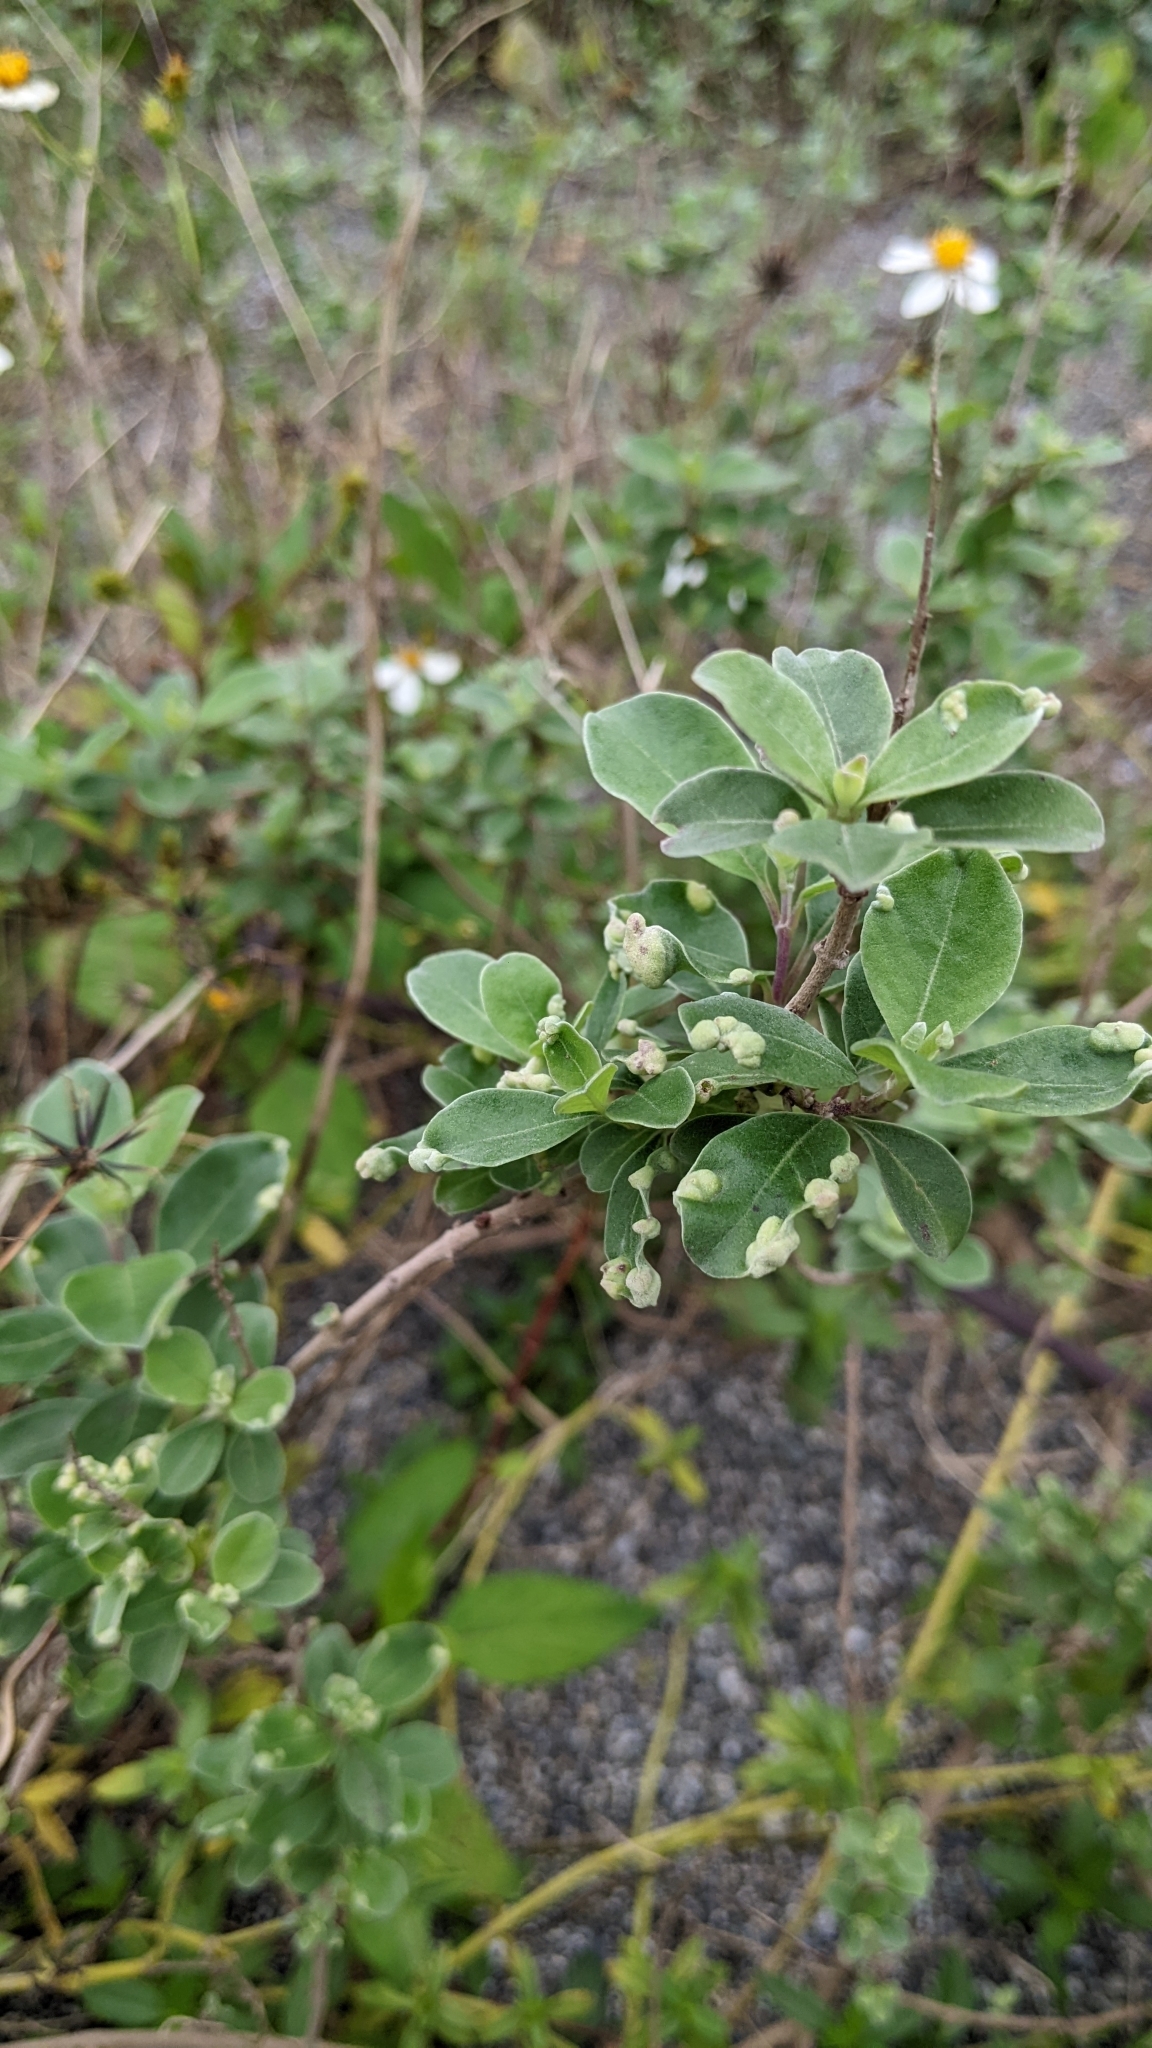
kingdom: Plantae
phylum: Tracheophyta
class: Magnoliopsida
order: Lamiales
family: Lamiaceae
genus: Vitex
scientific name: Vitex rotundifolia
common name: Beach vitex
